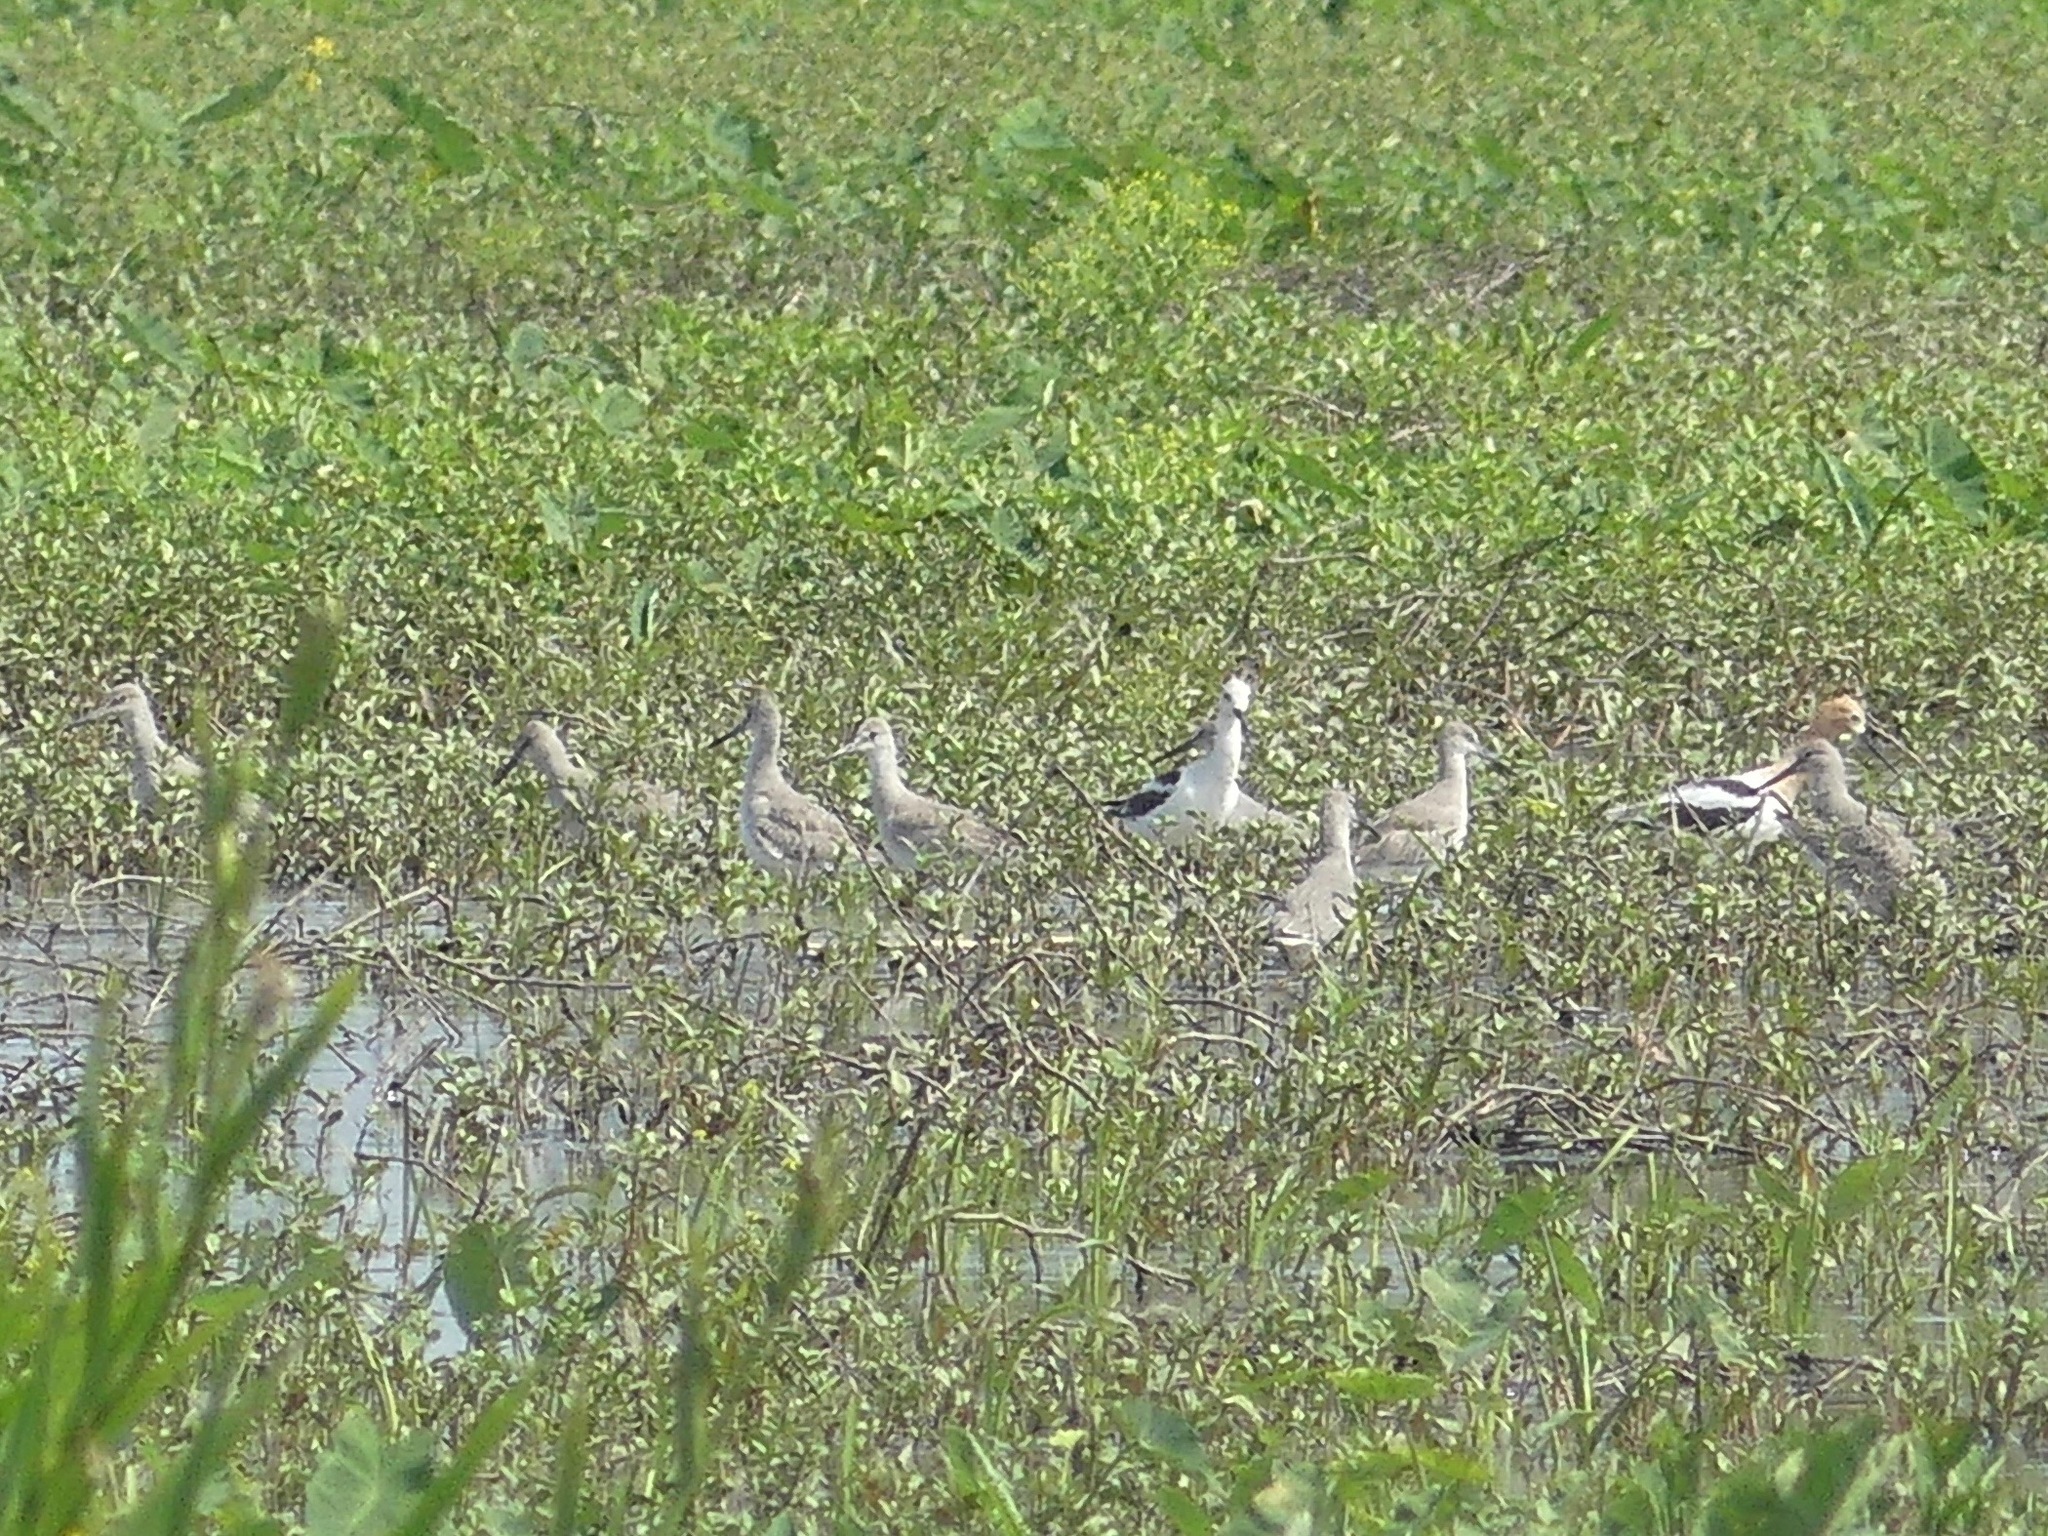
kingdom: Animalia
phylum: Chordata
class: Aves
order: Charadriiformes
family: Scolopacidae
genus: Tringa
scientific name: Tringa semipalmata
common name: Willet
